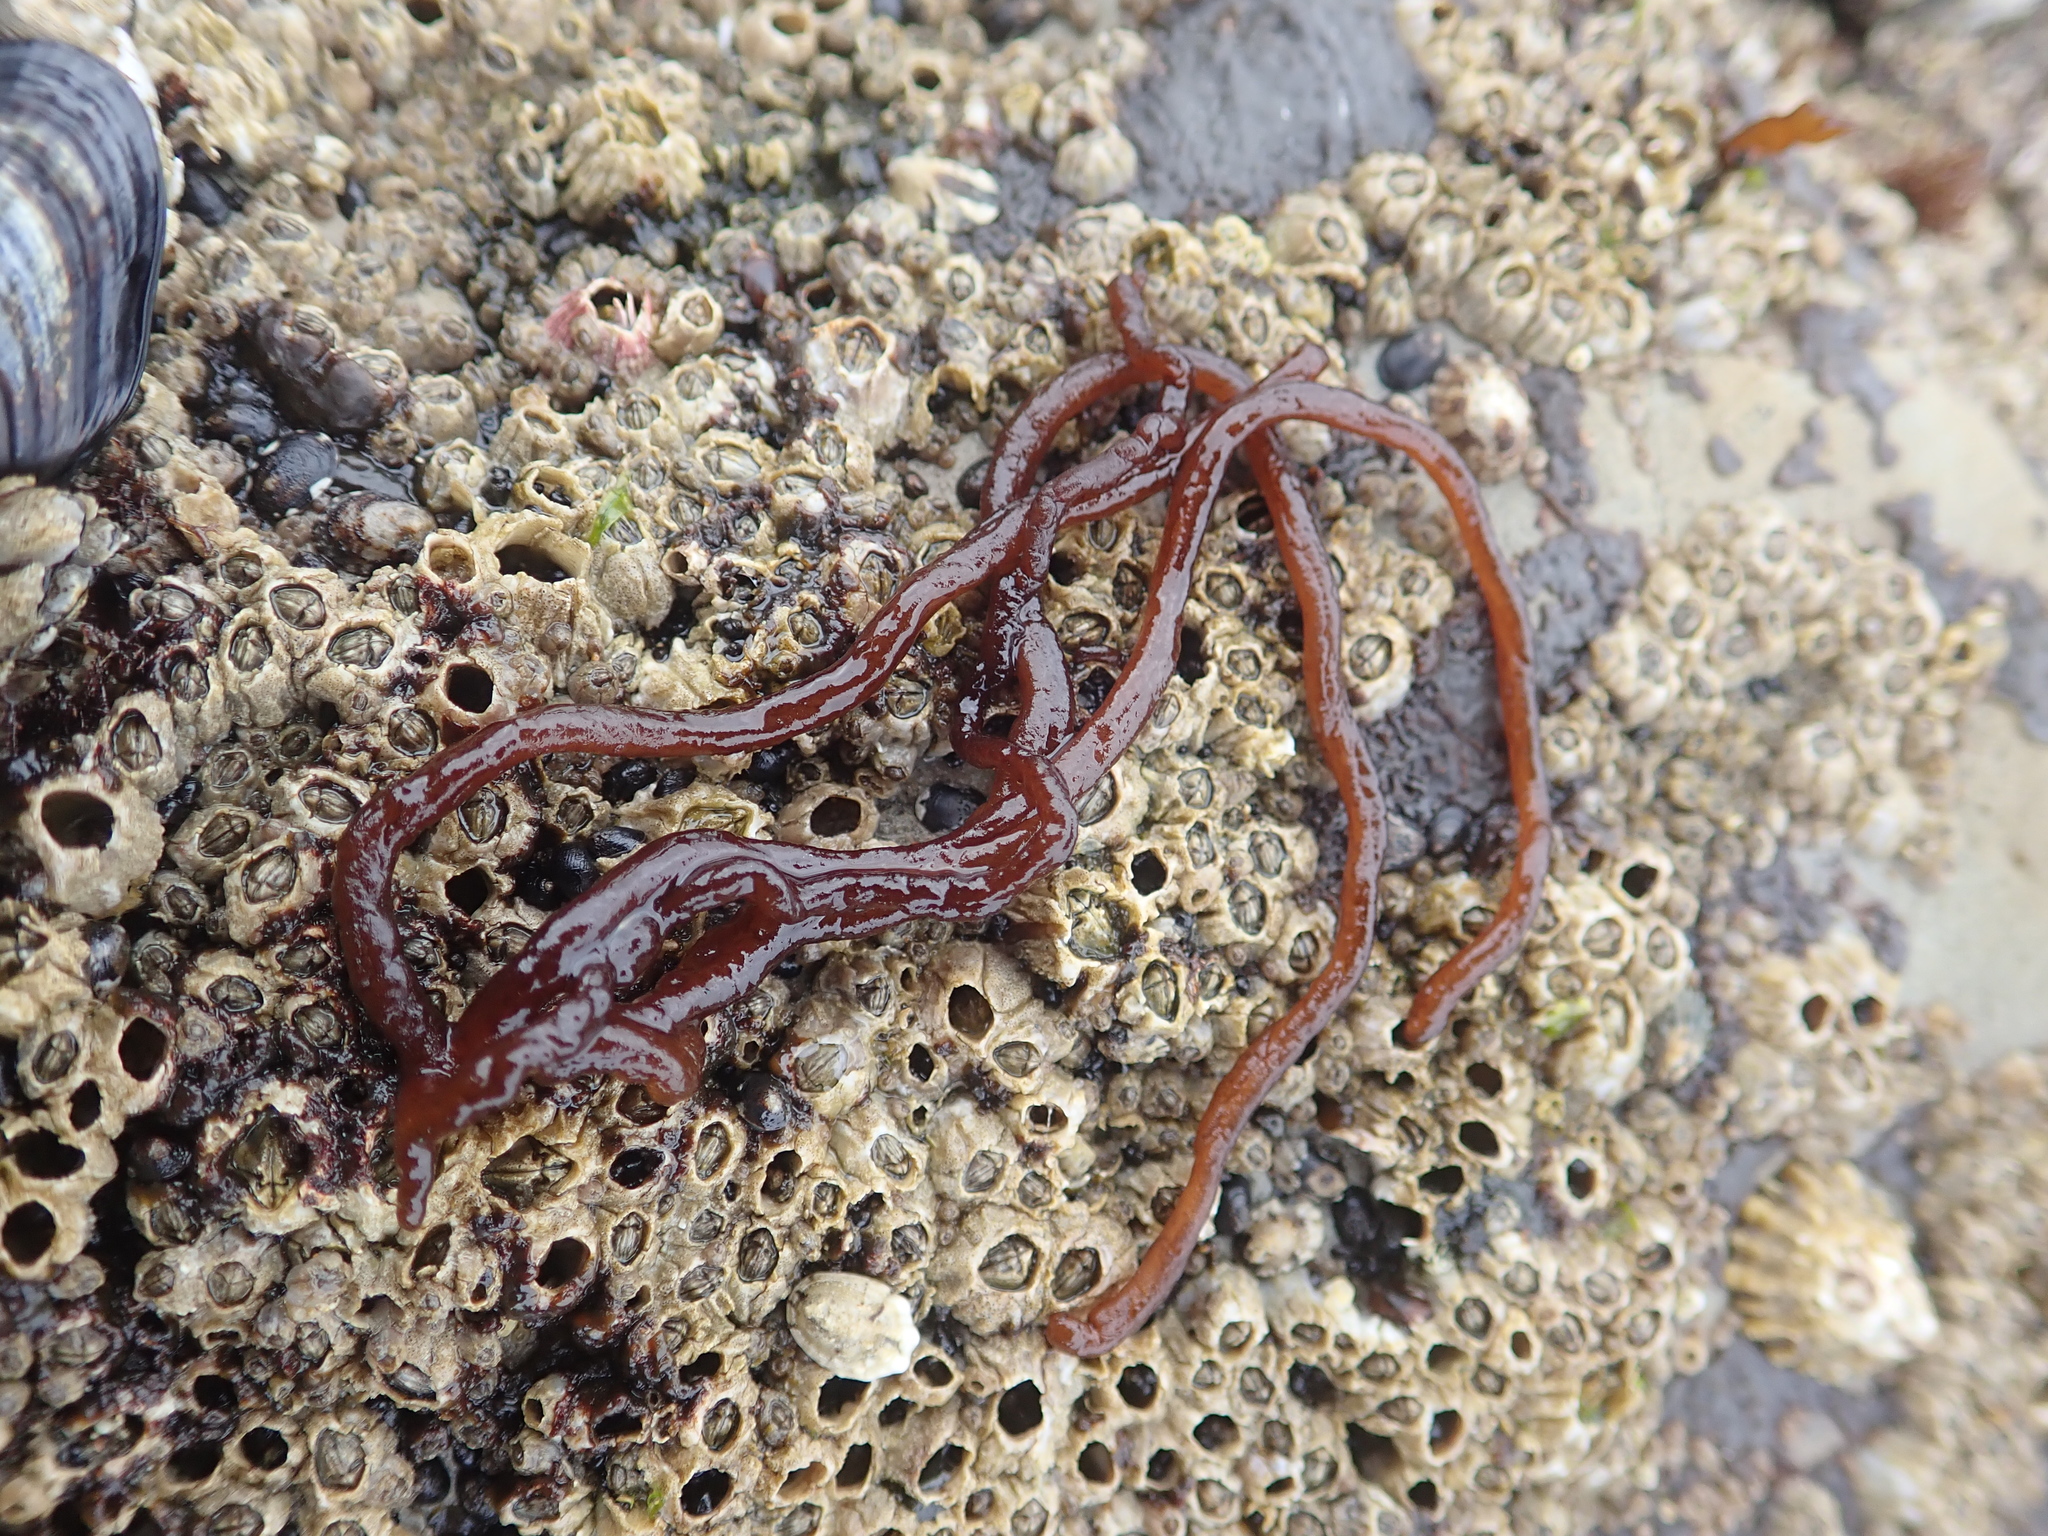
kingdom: Plantae
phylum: Rhodophyta
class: Florideophyceae
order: Nemaliales
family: Nemaliaceae
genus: Nemalion
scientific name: Nemalion elminthoides
